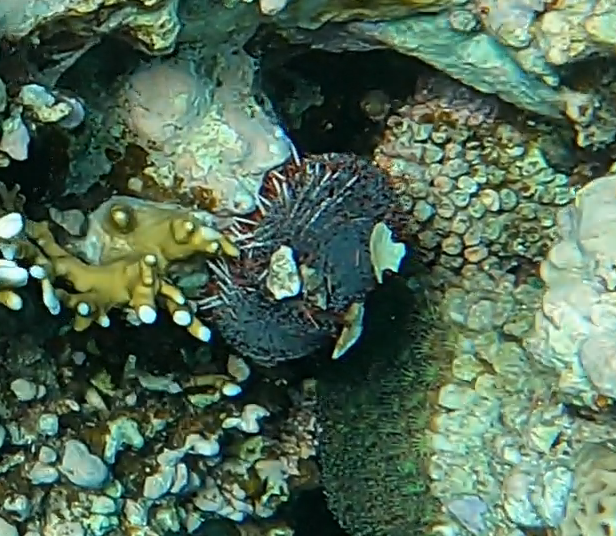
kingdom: Animalia
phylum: Echinodermata
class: Echinoidea
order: Camarodonta
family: Toxopneustidae
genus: Tripneustes
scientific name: Tripneustes gratilla
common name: Bischofsmützenseeigel
